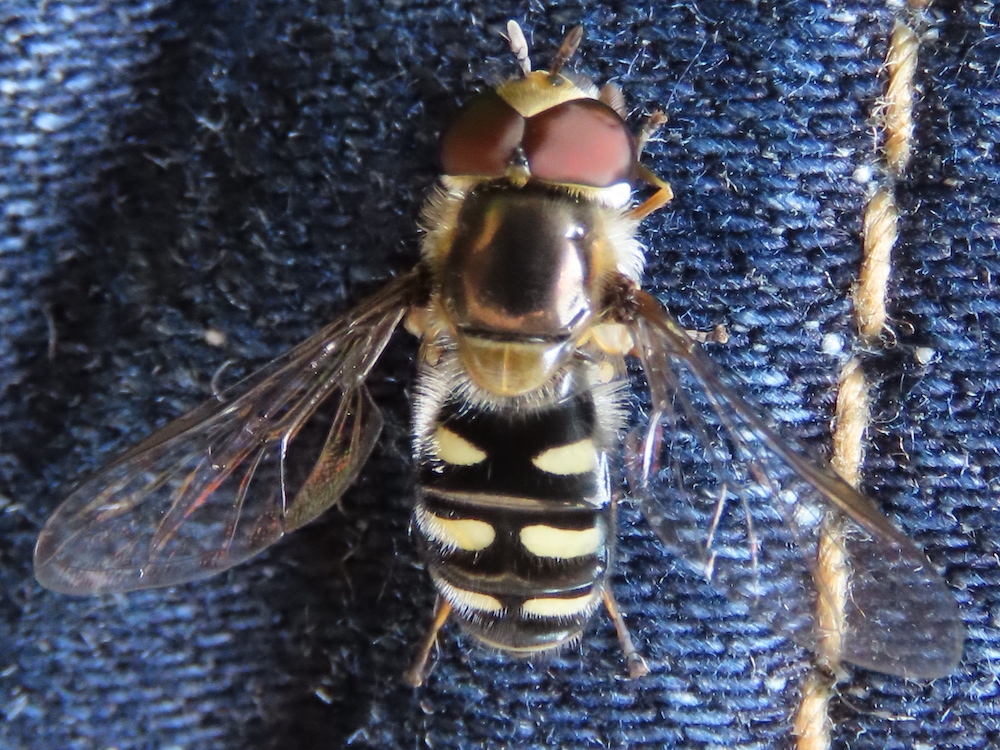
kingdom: Animalia
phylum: Arthropoda
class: Insecta
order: Diptera
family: Syrphidae
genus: Eupeodes
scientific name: Eupeodes perplexus
